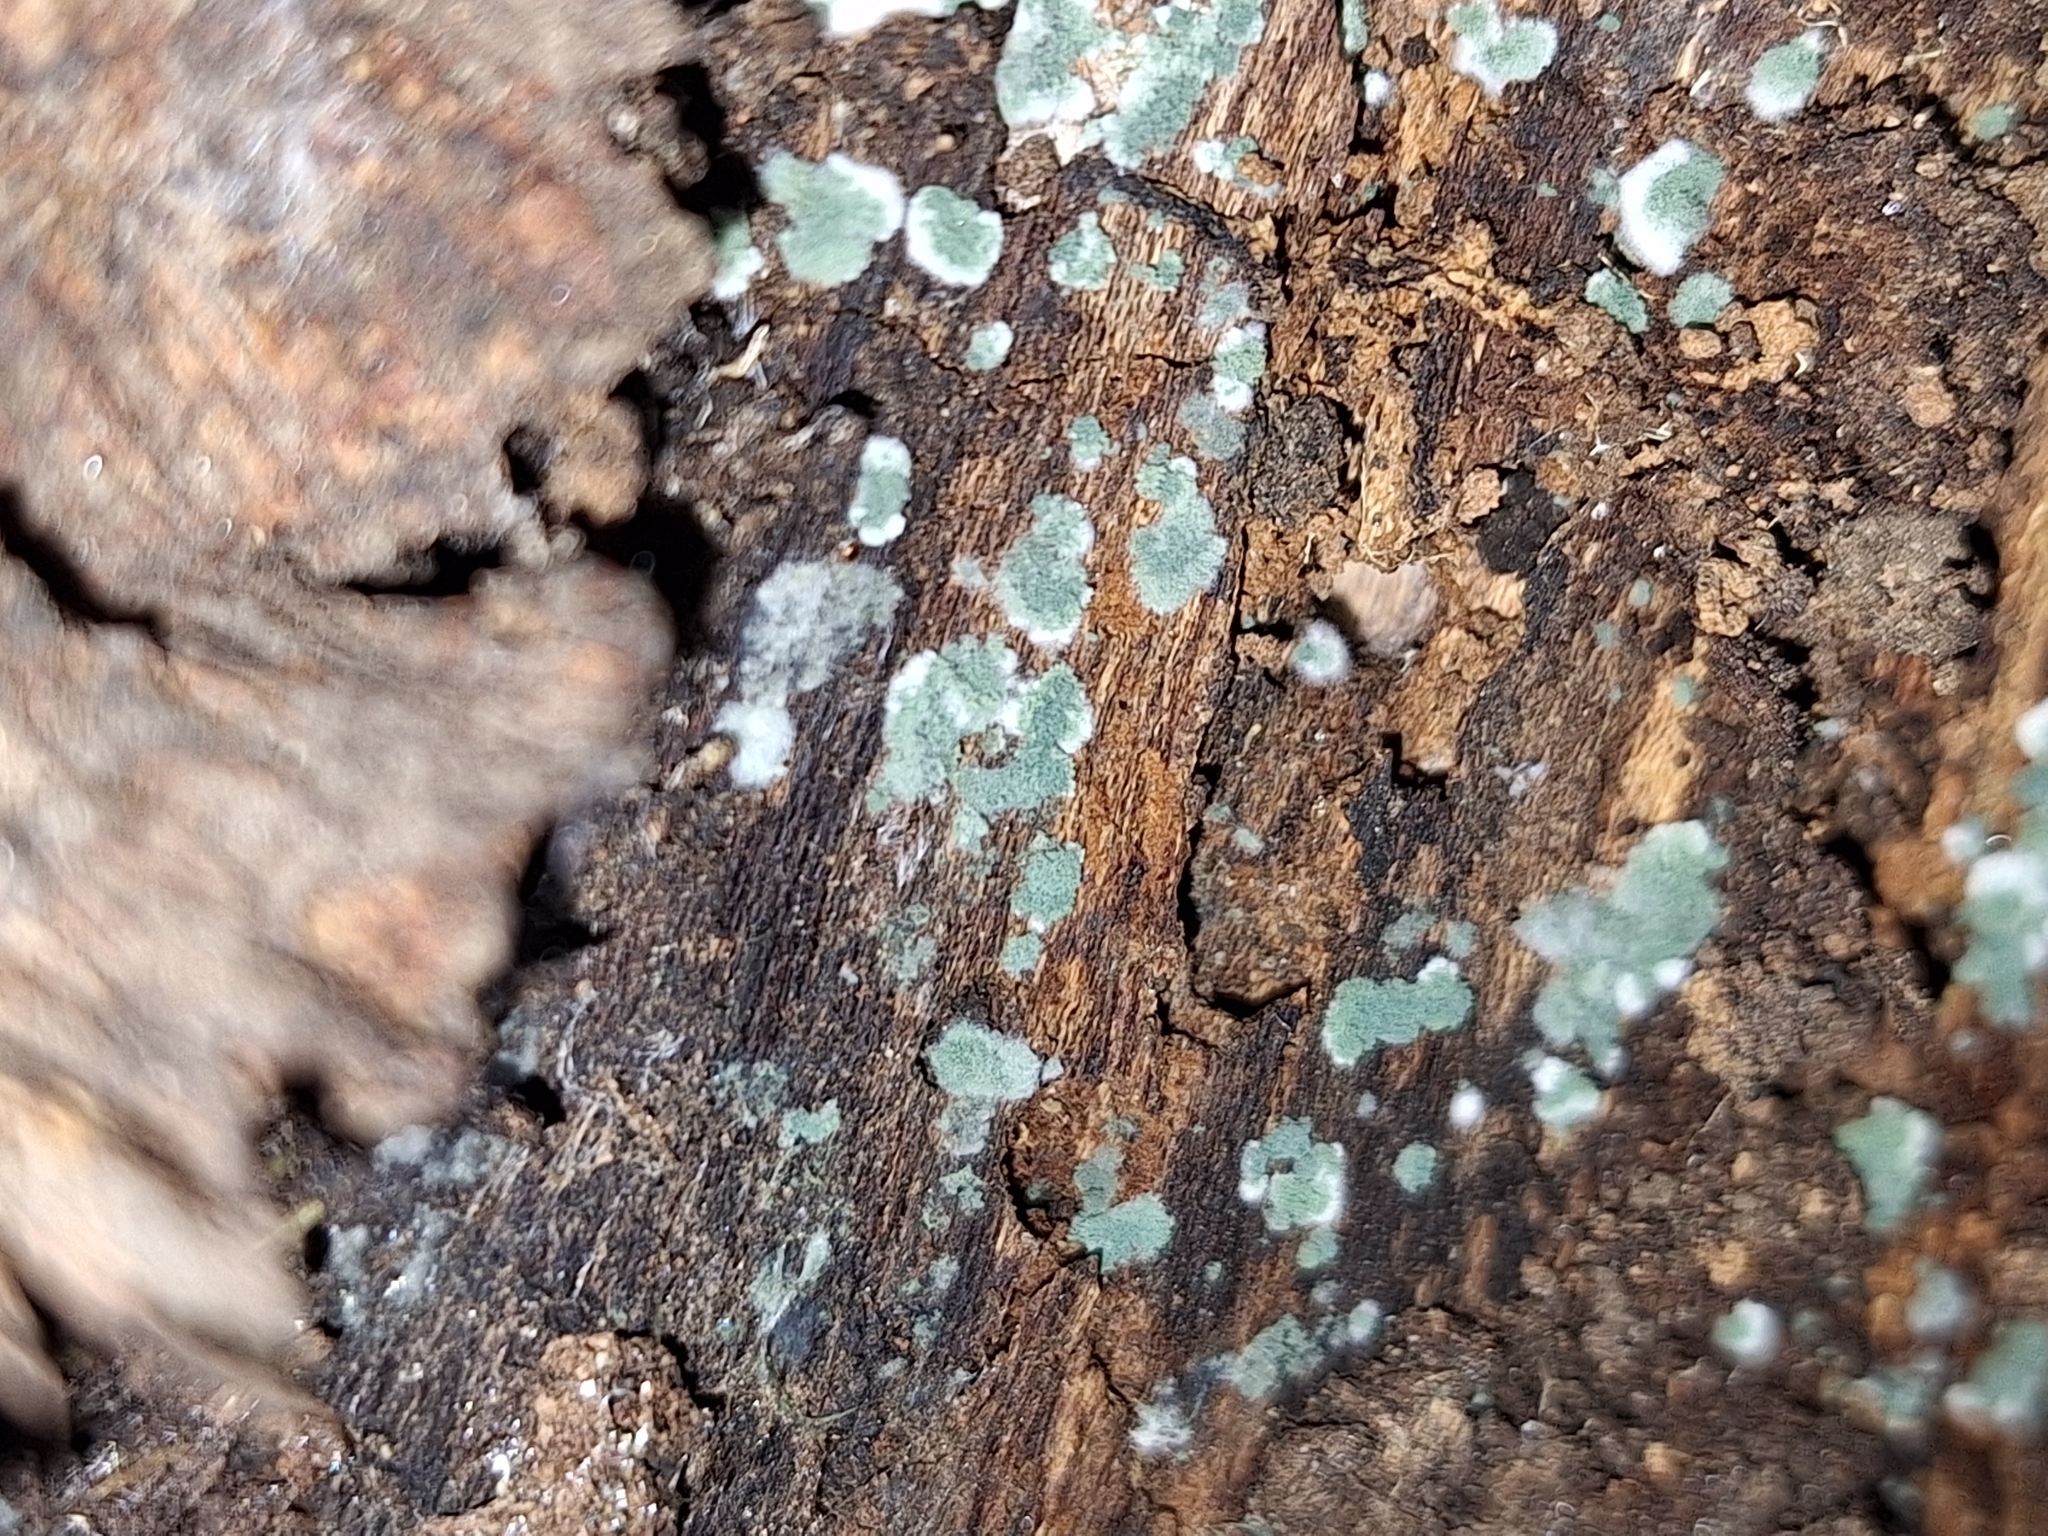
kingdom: Fungi
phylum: Ascomycota
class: Sordariomycetes
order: Hypocreales
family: Hypocreaceae
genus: Trichoderma
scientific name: Trichoderma viride
